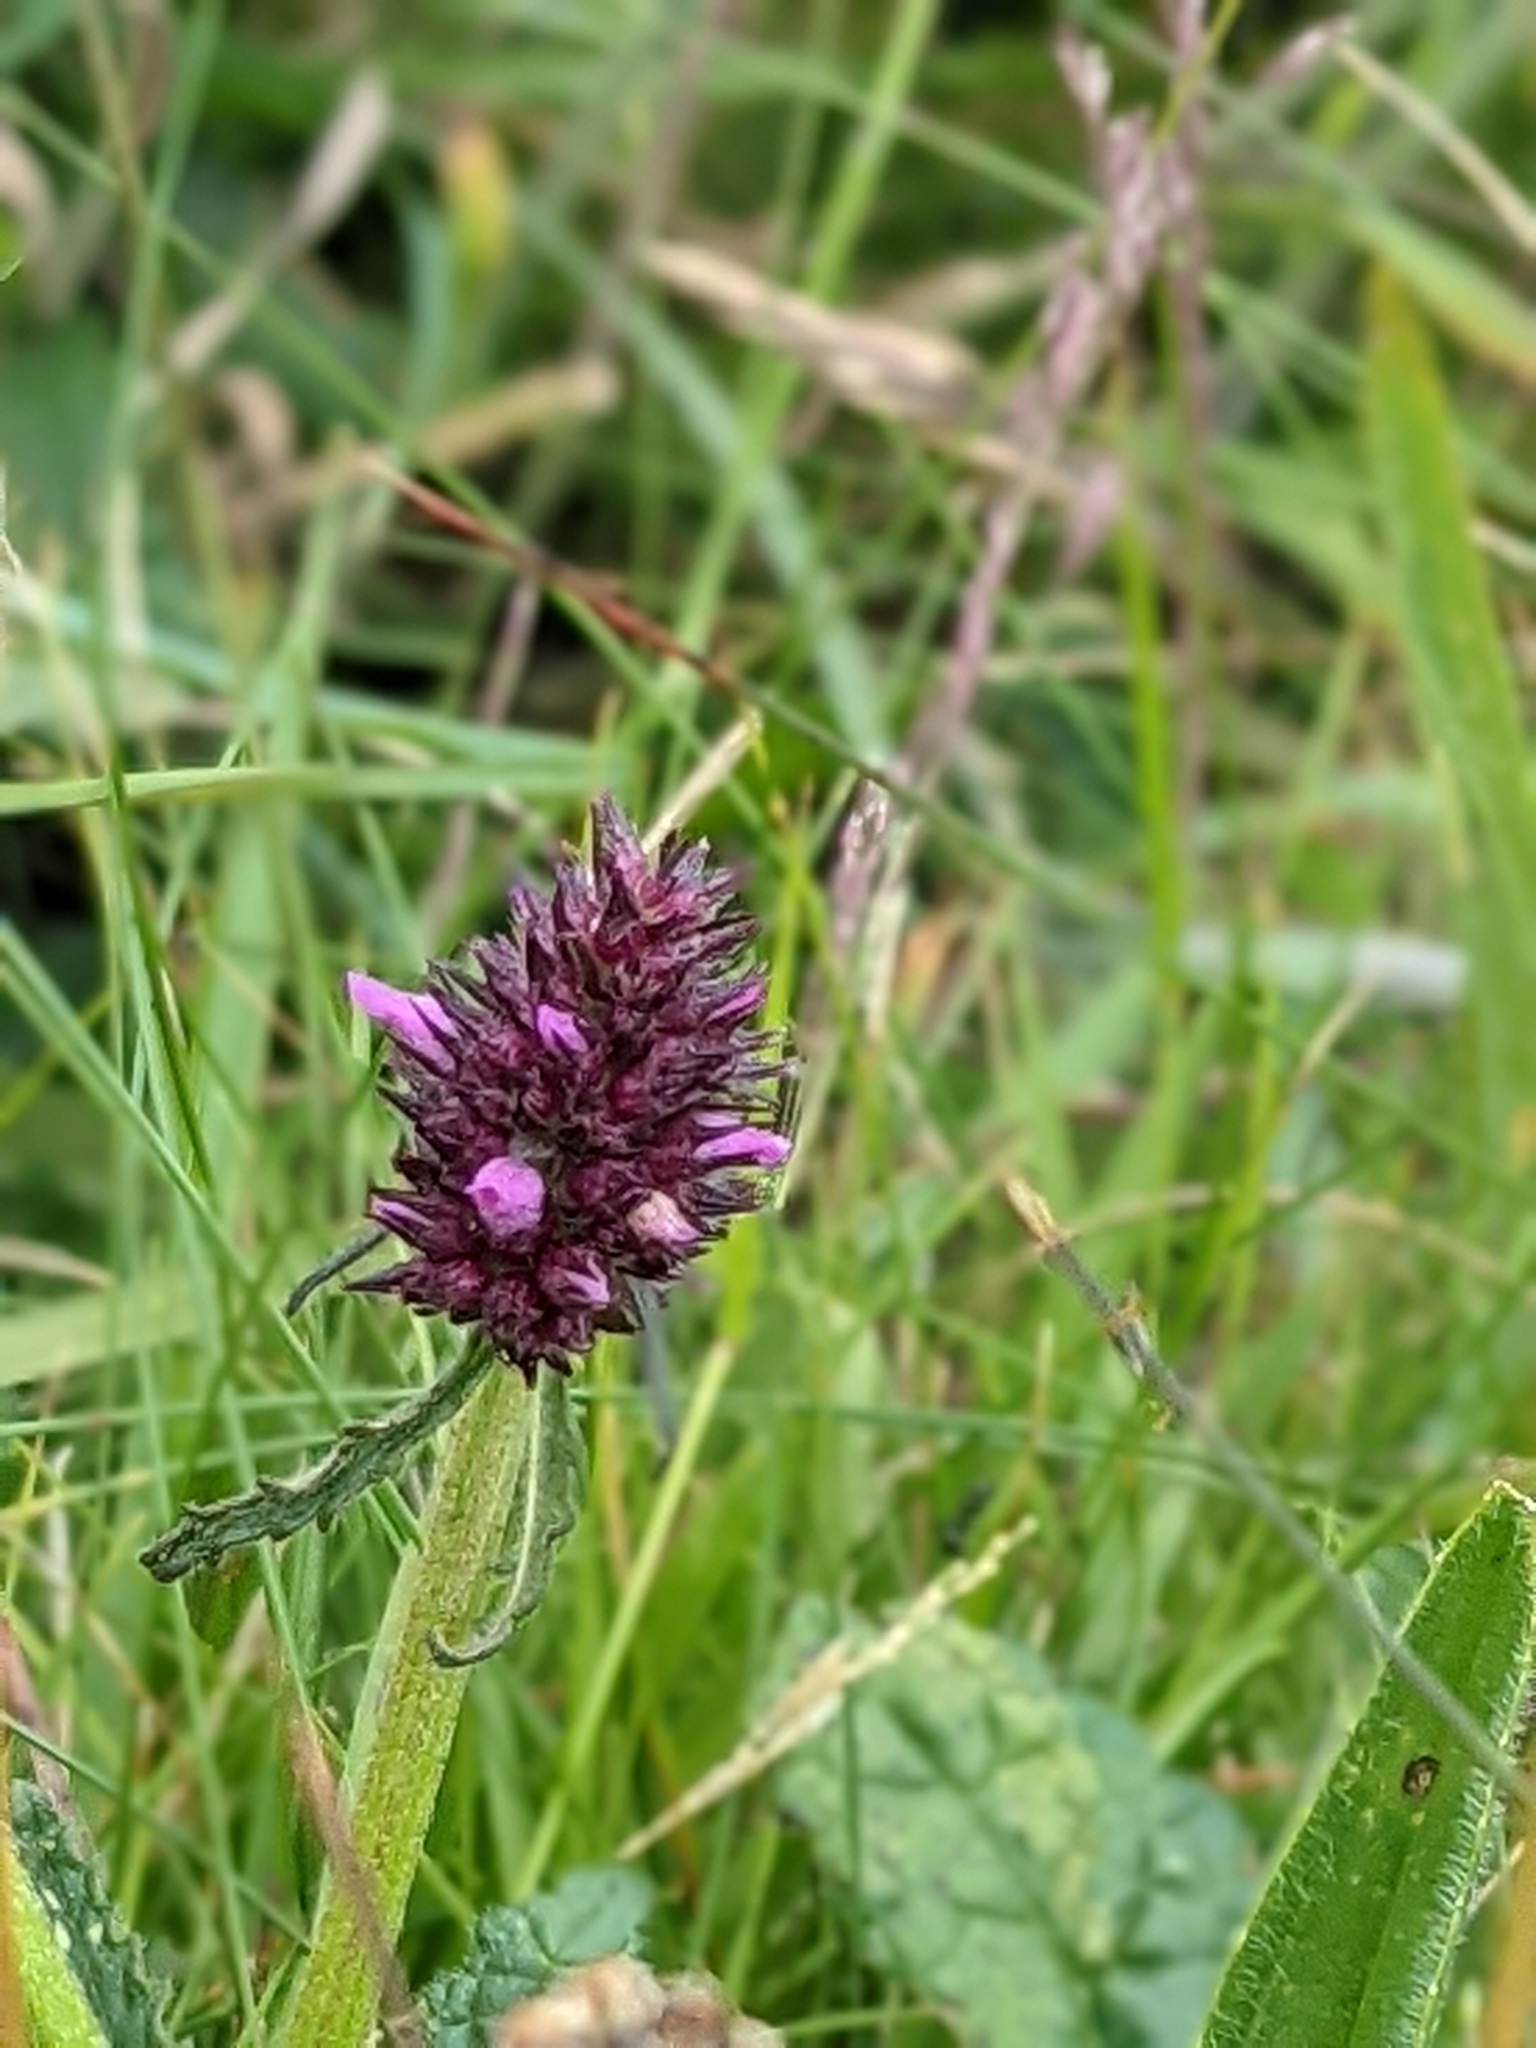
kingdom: Plantae
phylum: Tracheophyta
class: Magnoliopsida
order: Lamiales
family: Lamiaceae
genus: Betonica
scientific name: Betonica officinalis
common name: Bishop's-wort
